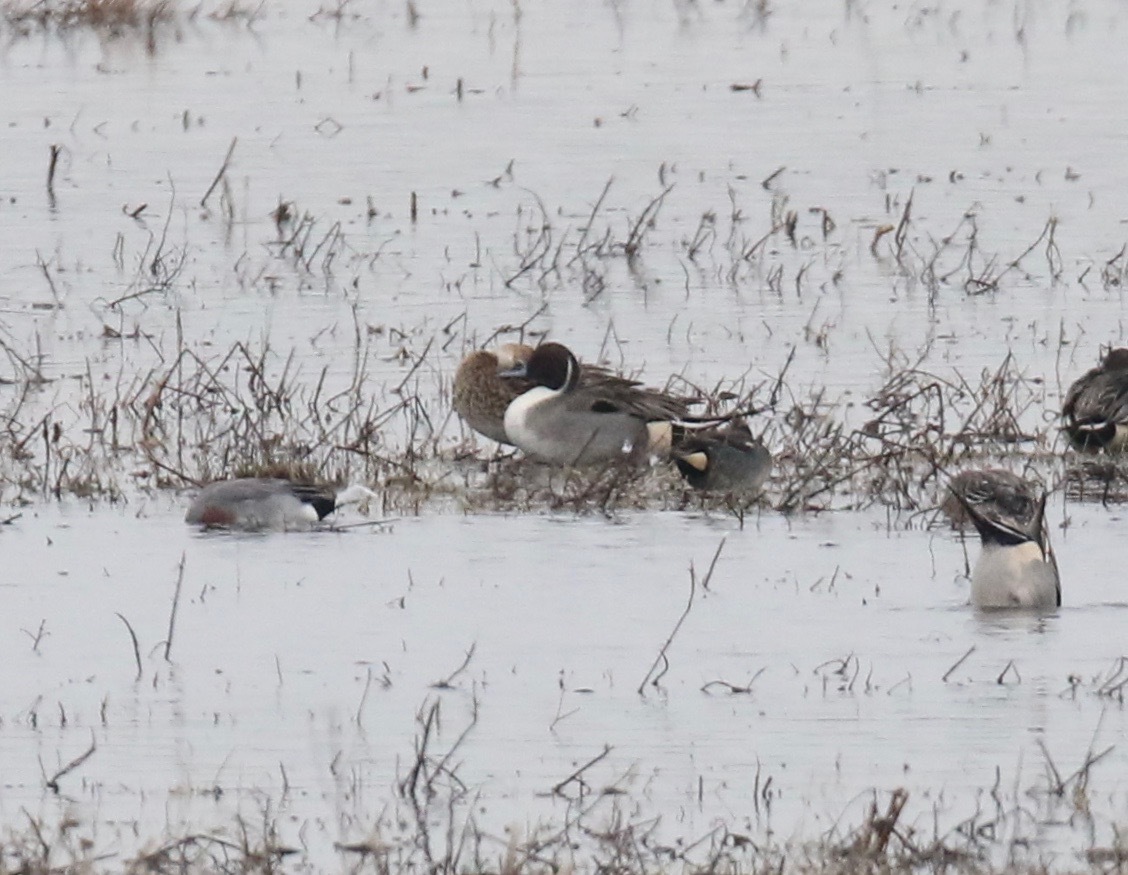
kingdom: Animalia
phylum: Chordata
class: Aves
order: Anseriformes
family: Anatidae
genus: Anas
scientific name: Anas acuta
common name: Northern pintail
